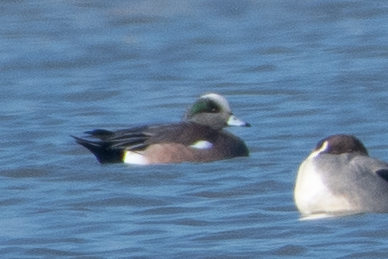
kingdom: Animalia
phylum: Chordata
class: Aves
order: Anseriformes
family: Anatidae
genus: Mareca
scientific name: Mareca americana
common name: American wigeon
